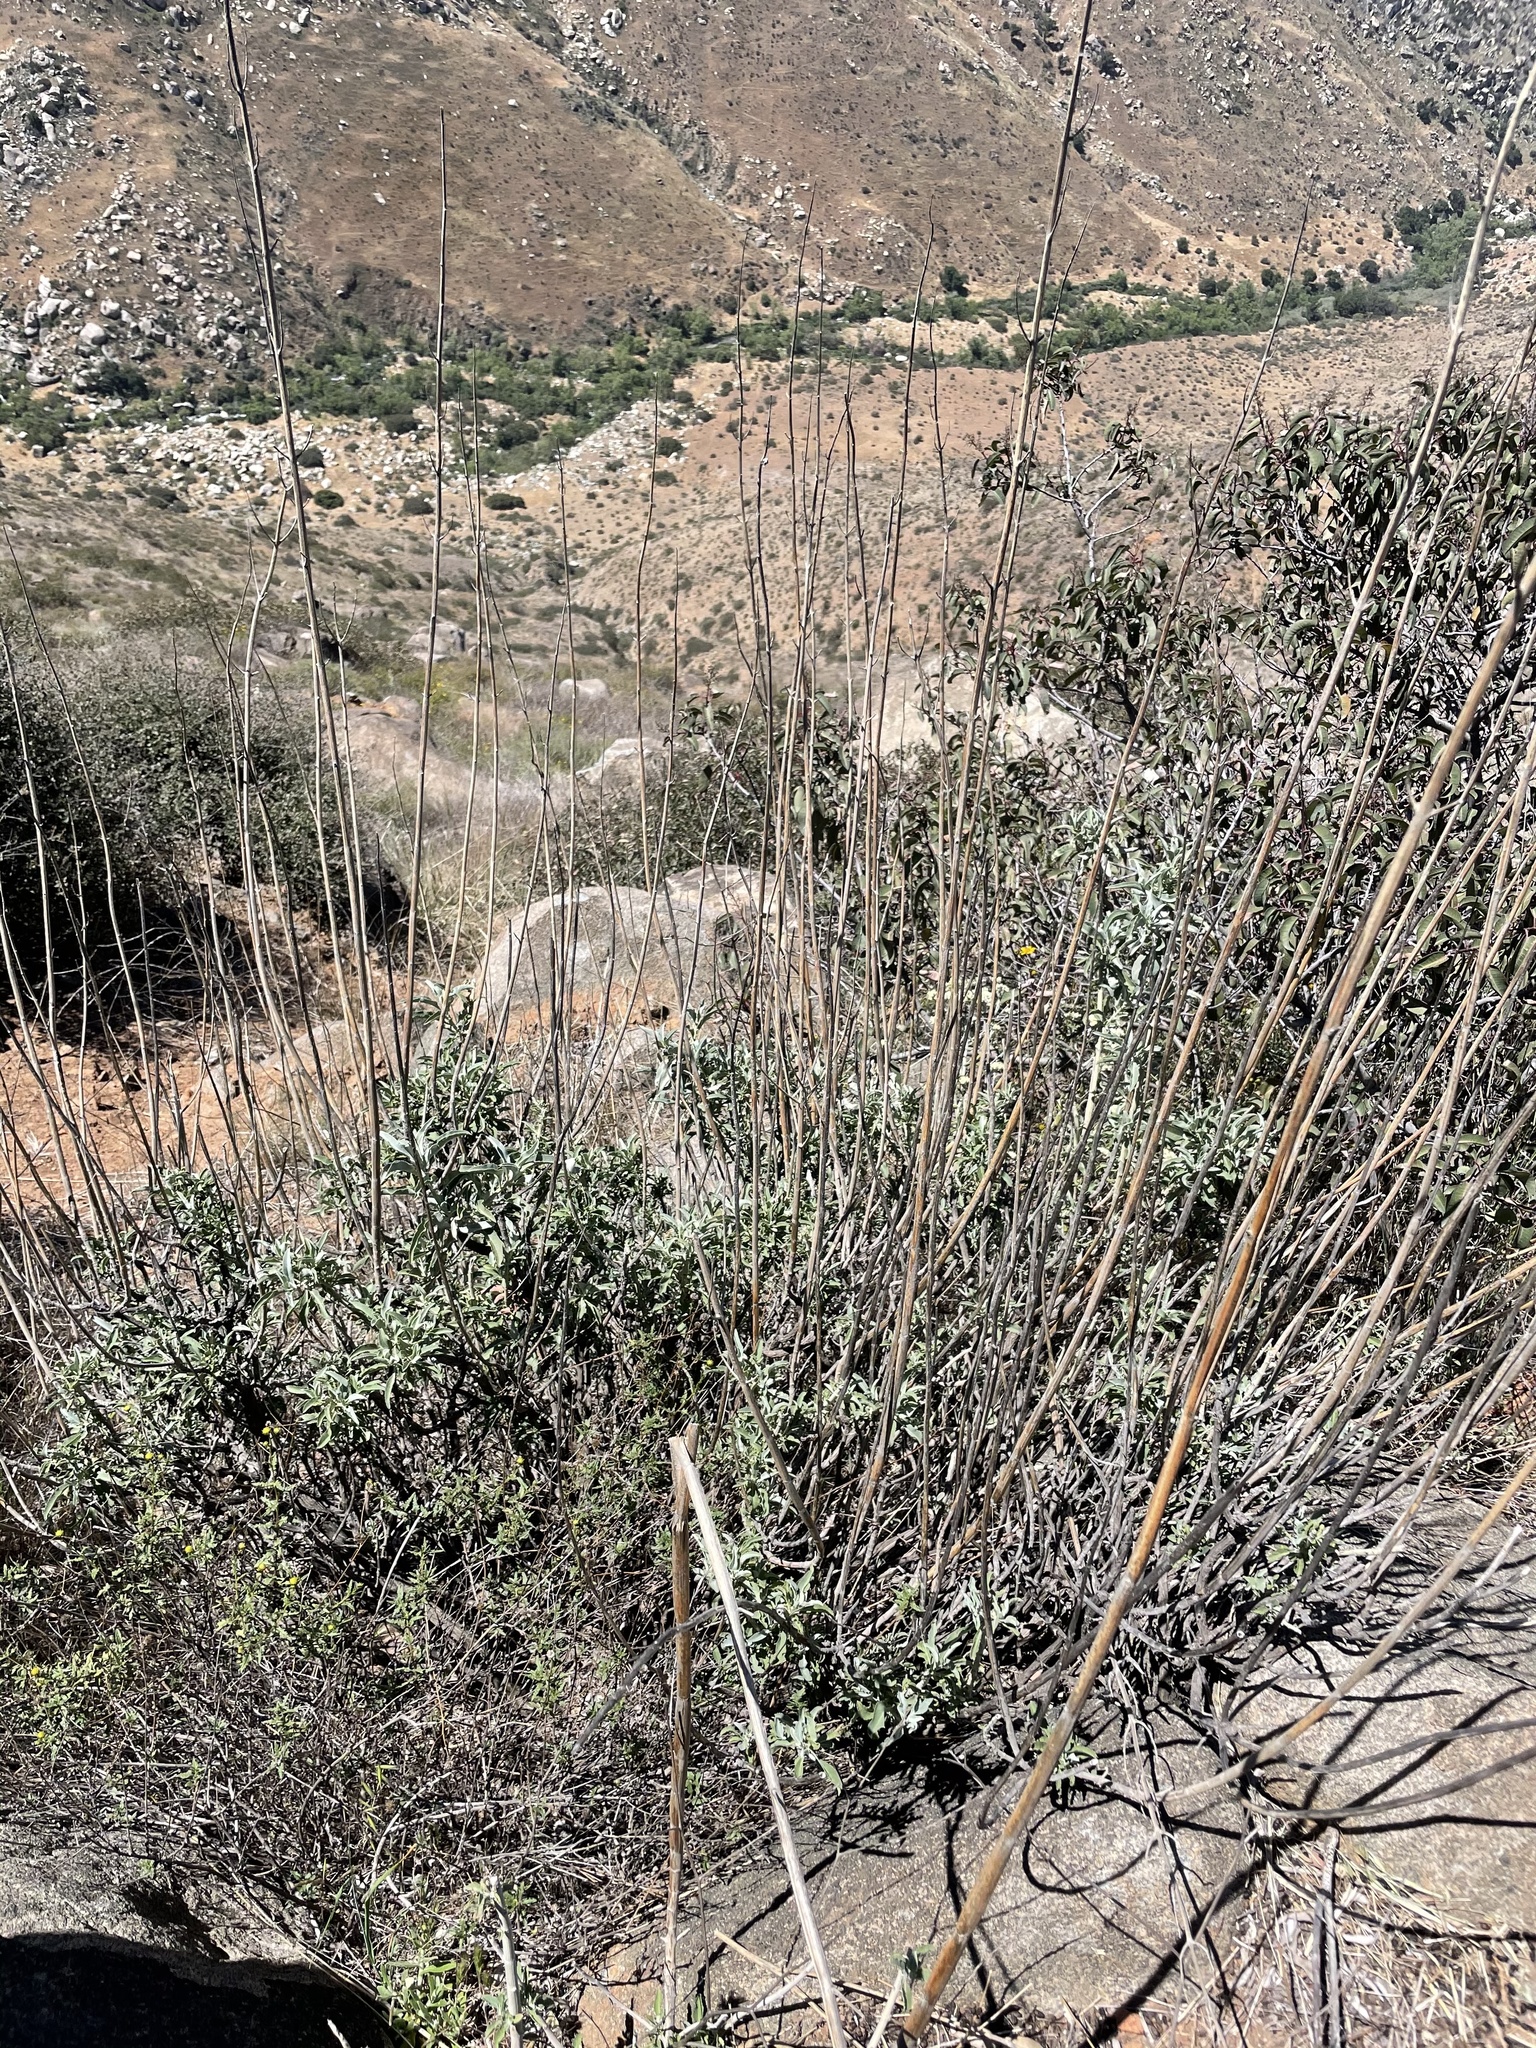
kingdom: Plantae
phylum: Tracheophyta
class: Magnoliopsida
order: Lamiales
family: Lamiaceae
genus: Salvia
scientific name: Salvia apiana
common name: White sage
